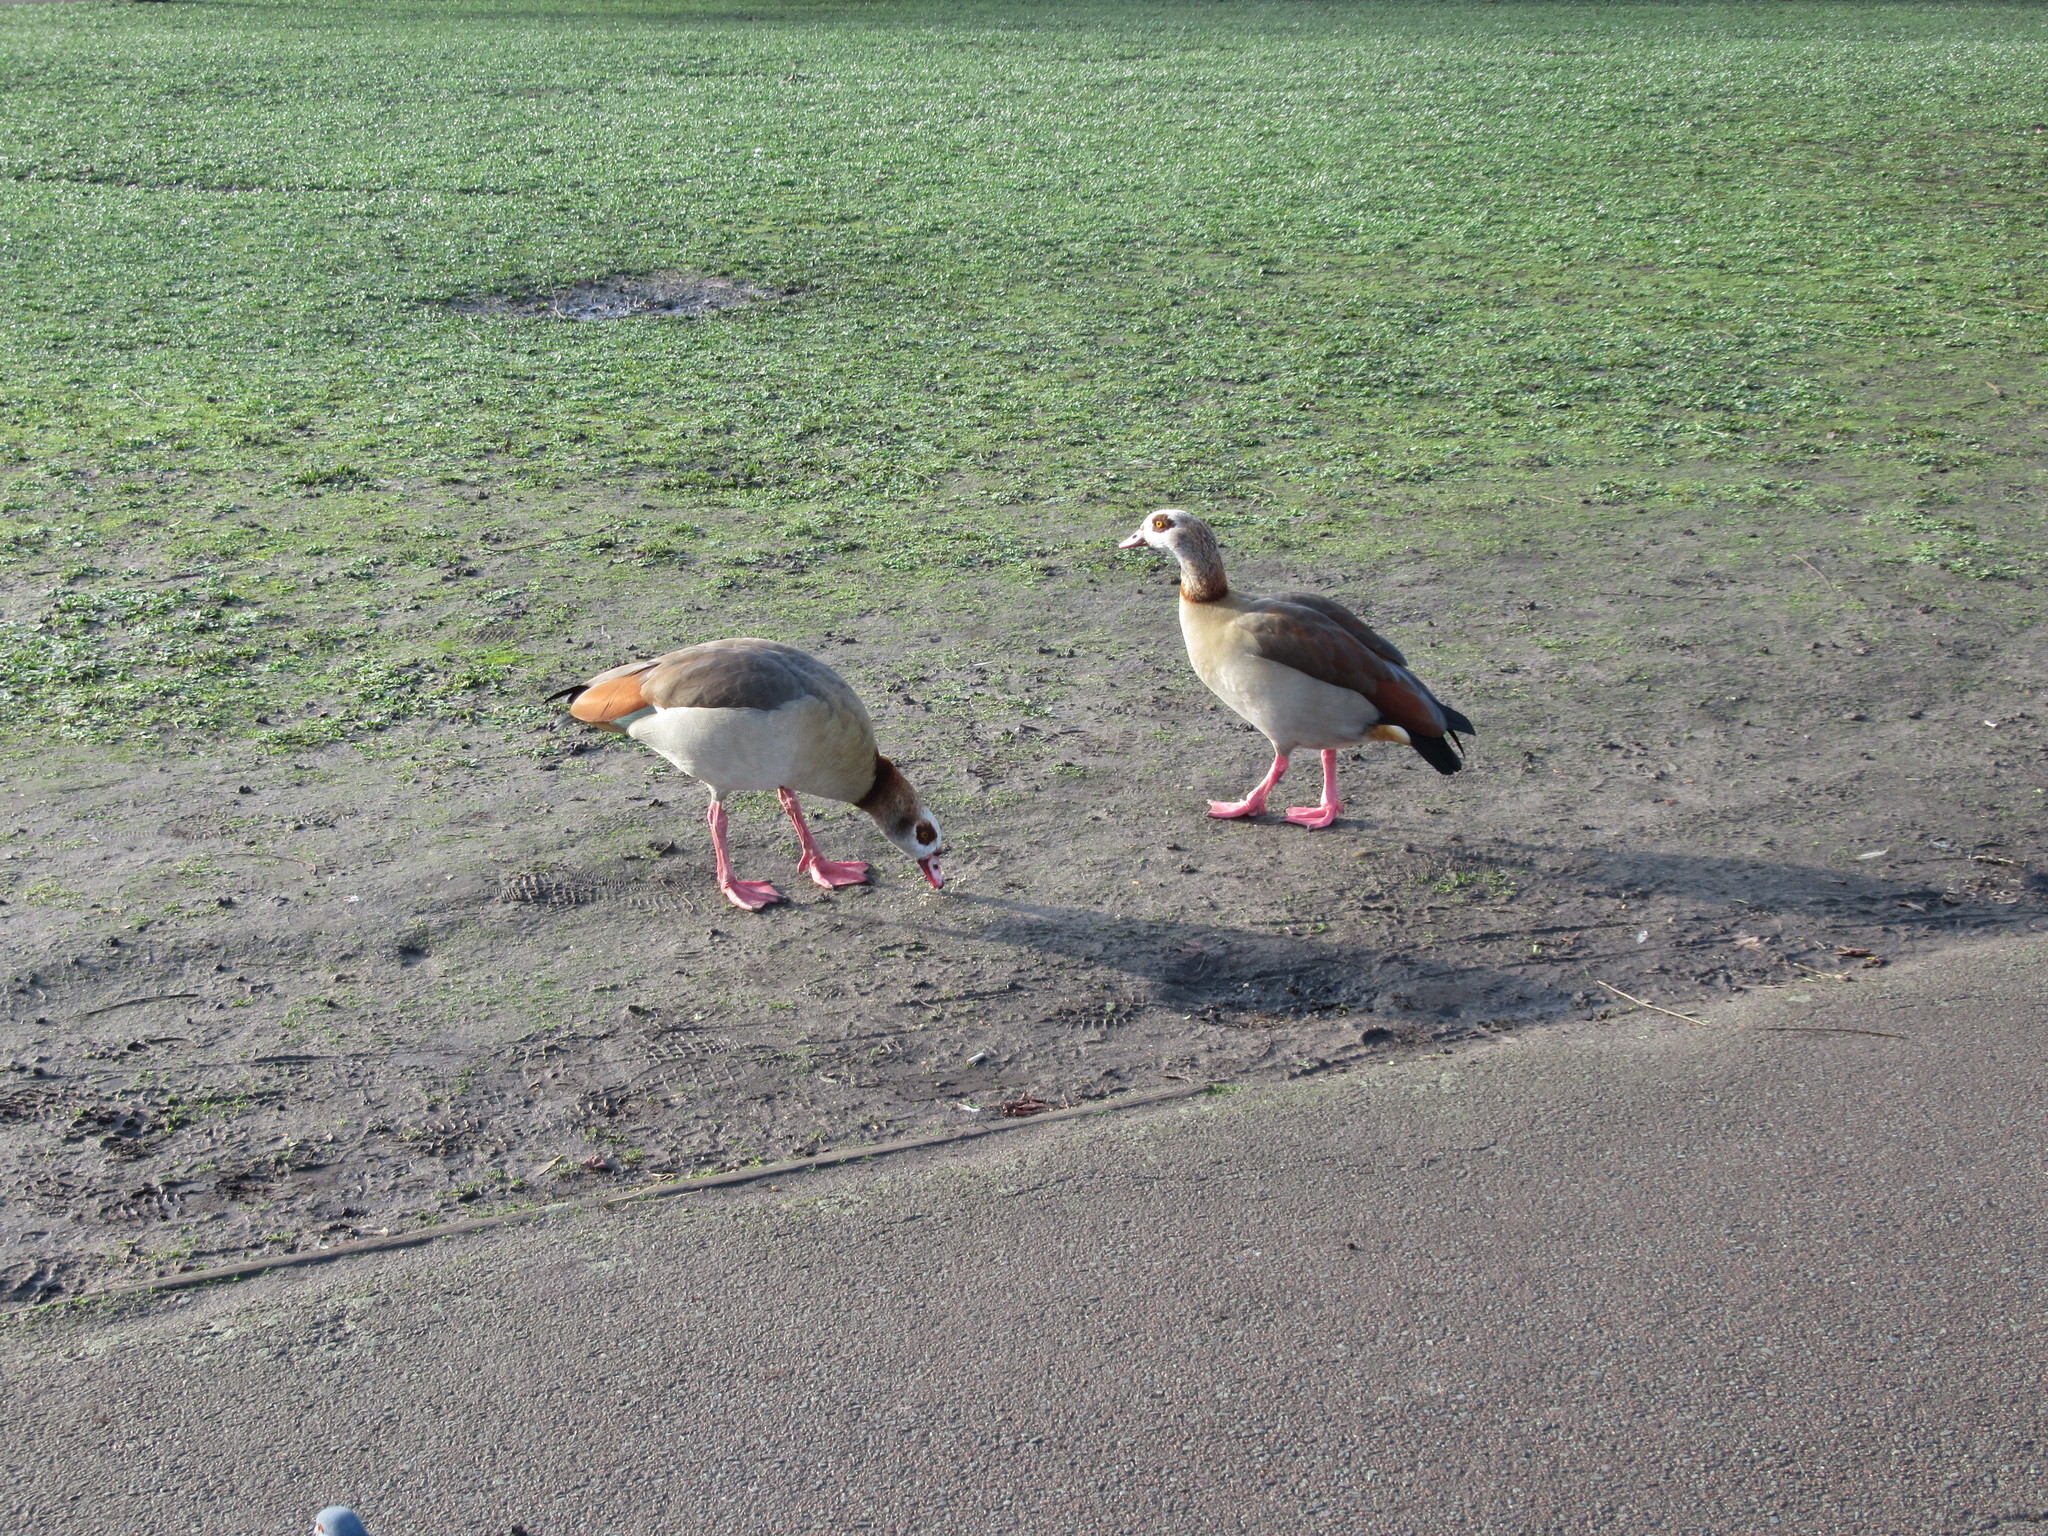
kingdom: Animalia
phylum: Chordata
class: Aves
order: Anseriformes
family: Anatidae
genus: Alopochen
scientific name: Alopochen aegyptiaca
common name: Egyptian goose
